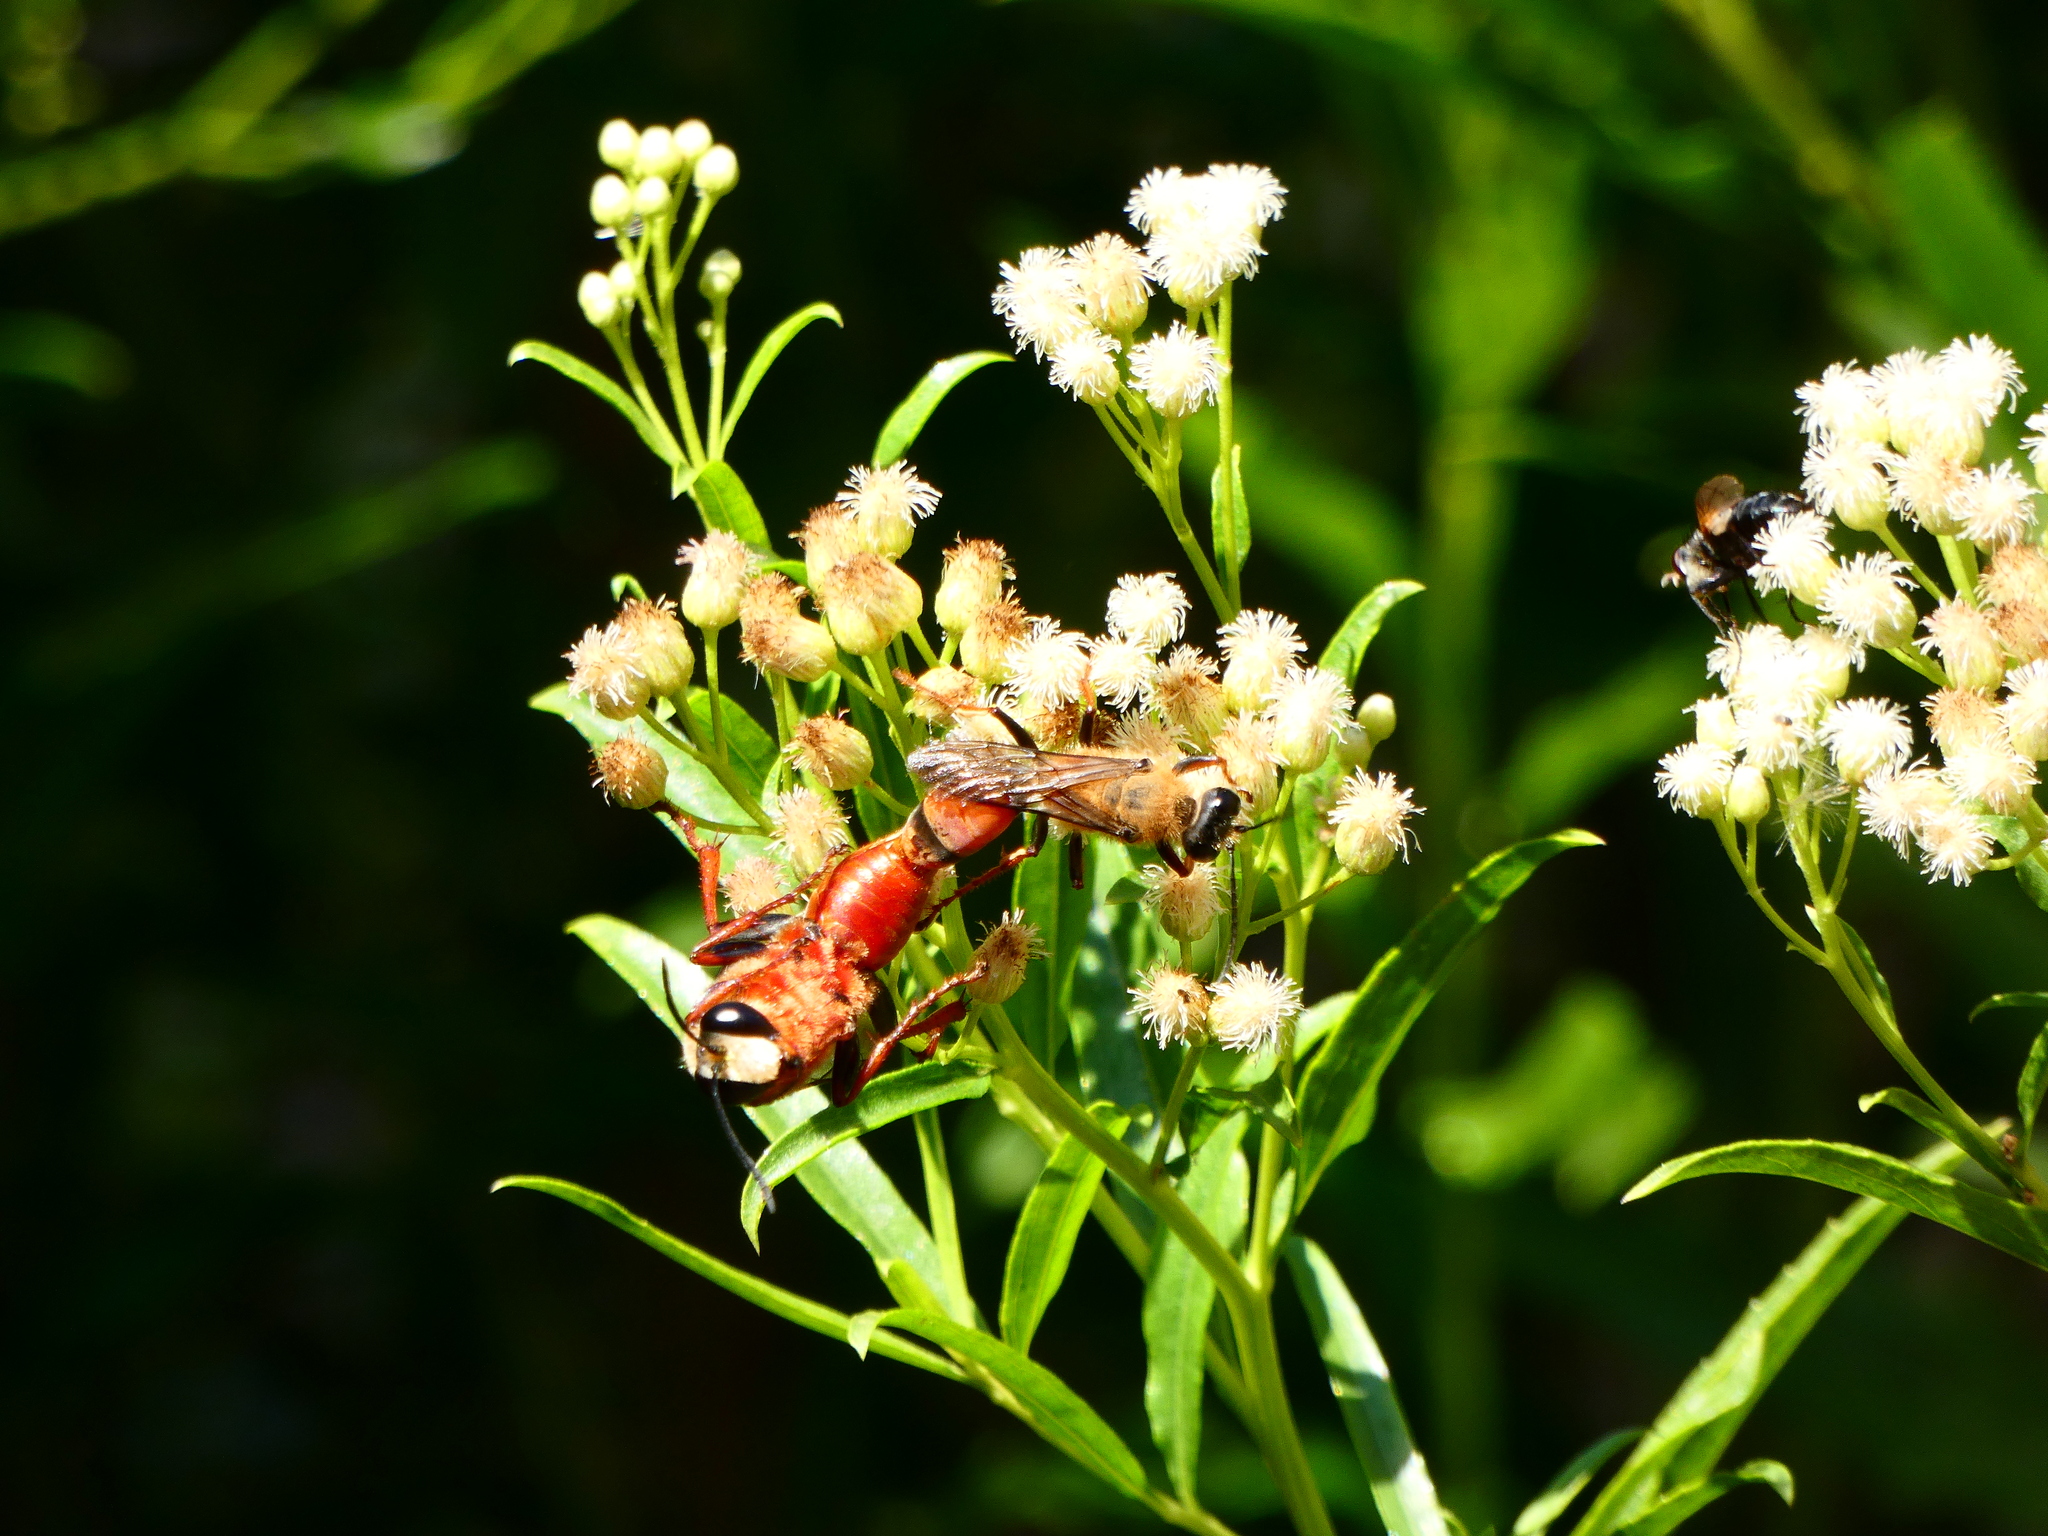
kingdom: Animalia
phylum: Arthropoda
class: Insecta
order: Hymenoptera
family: Sphecidae
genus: Sphex
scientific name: Sphex latreillei
